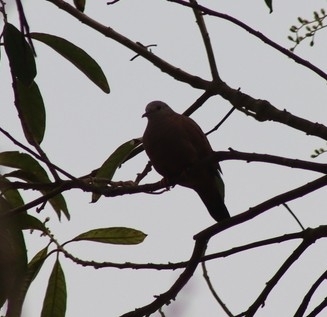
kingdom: Animalia
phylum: Chordata
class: Aves
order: Columbiformes
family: Columbidae
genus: Columbina
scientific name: Columbina talpacoti
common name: Ruddy ground dove
